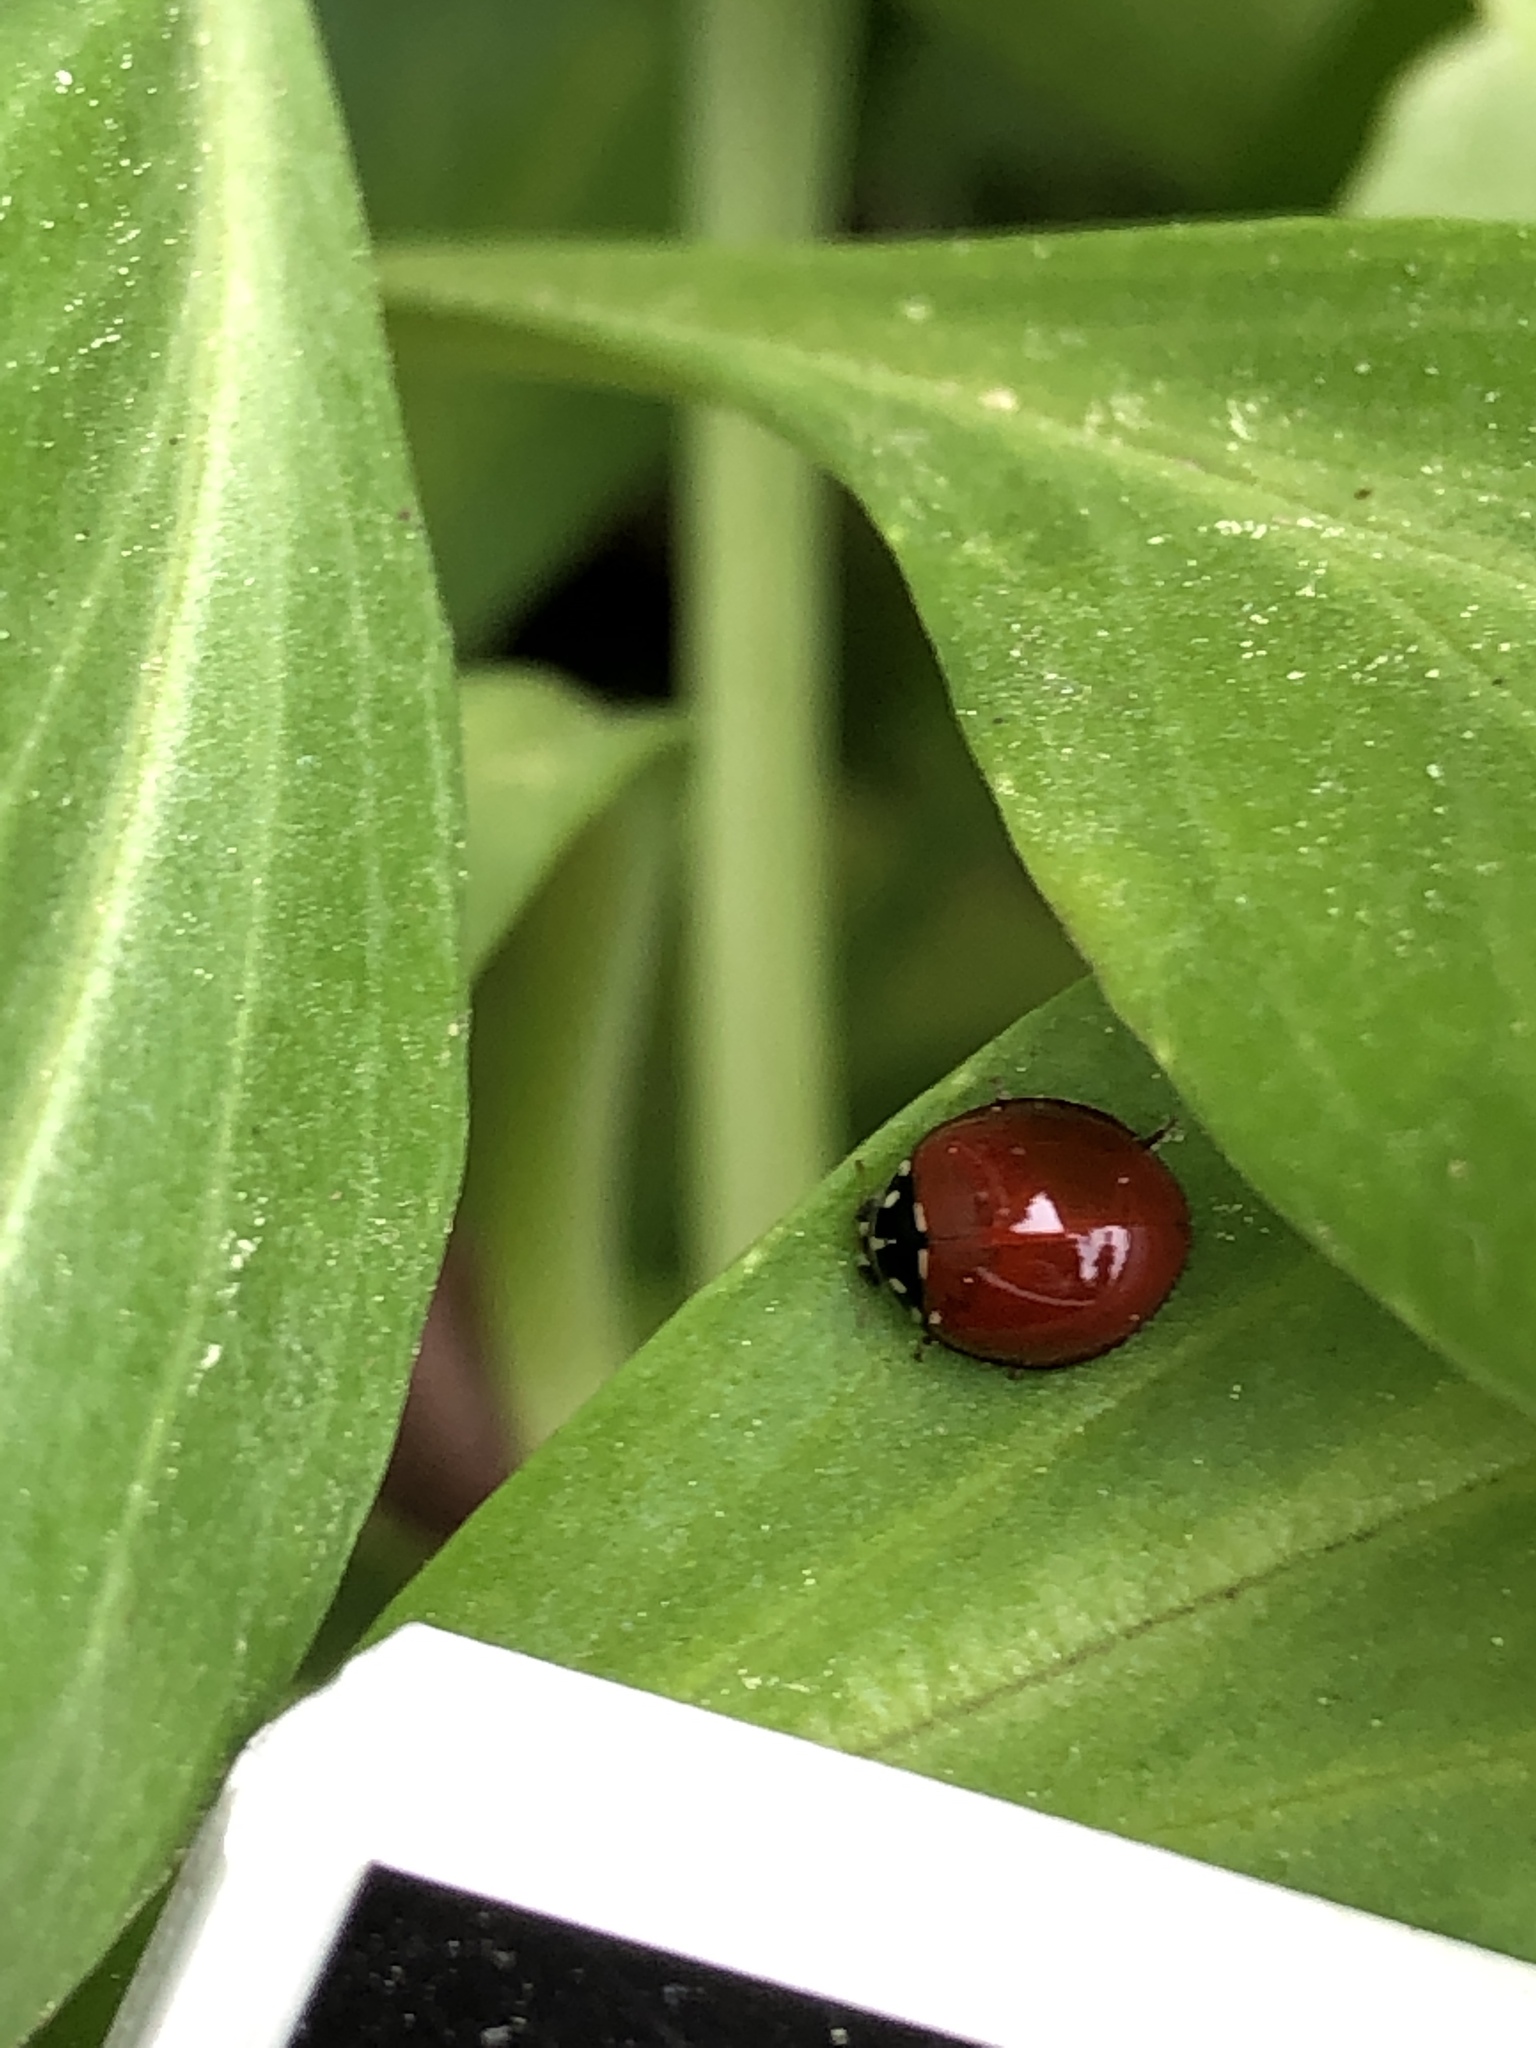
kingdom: Animalia
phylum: Arthropoda
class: Insecta
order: Coleoptera
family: Coccinellidae
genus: Cycloneda
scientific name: Cycloneda sanguinea
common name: Ladybird beetle
